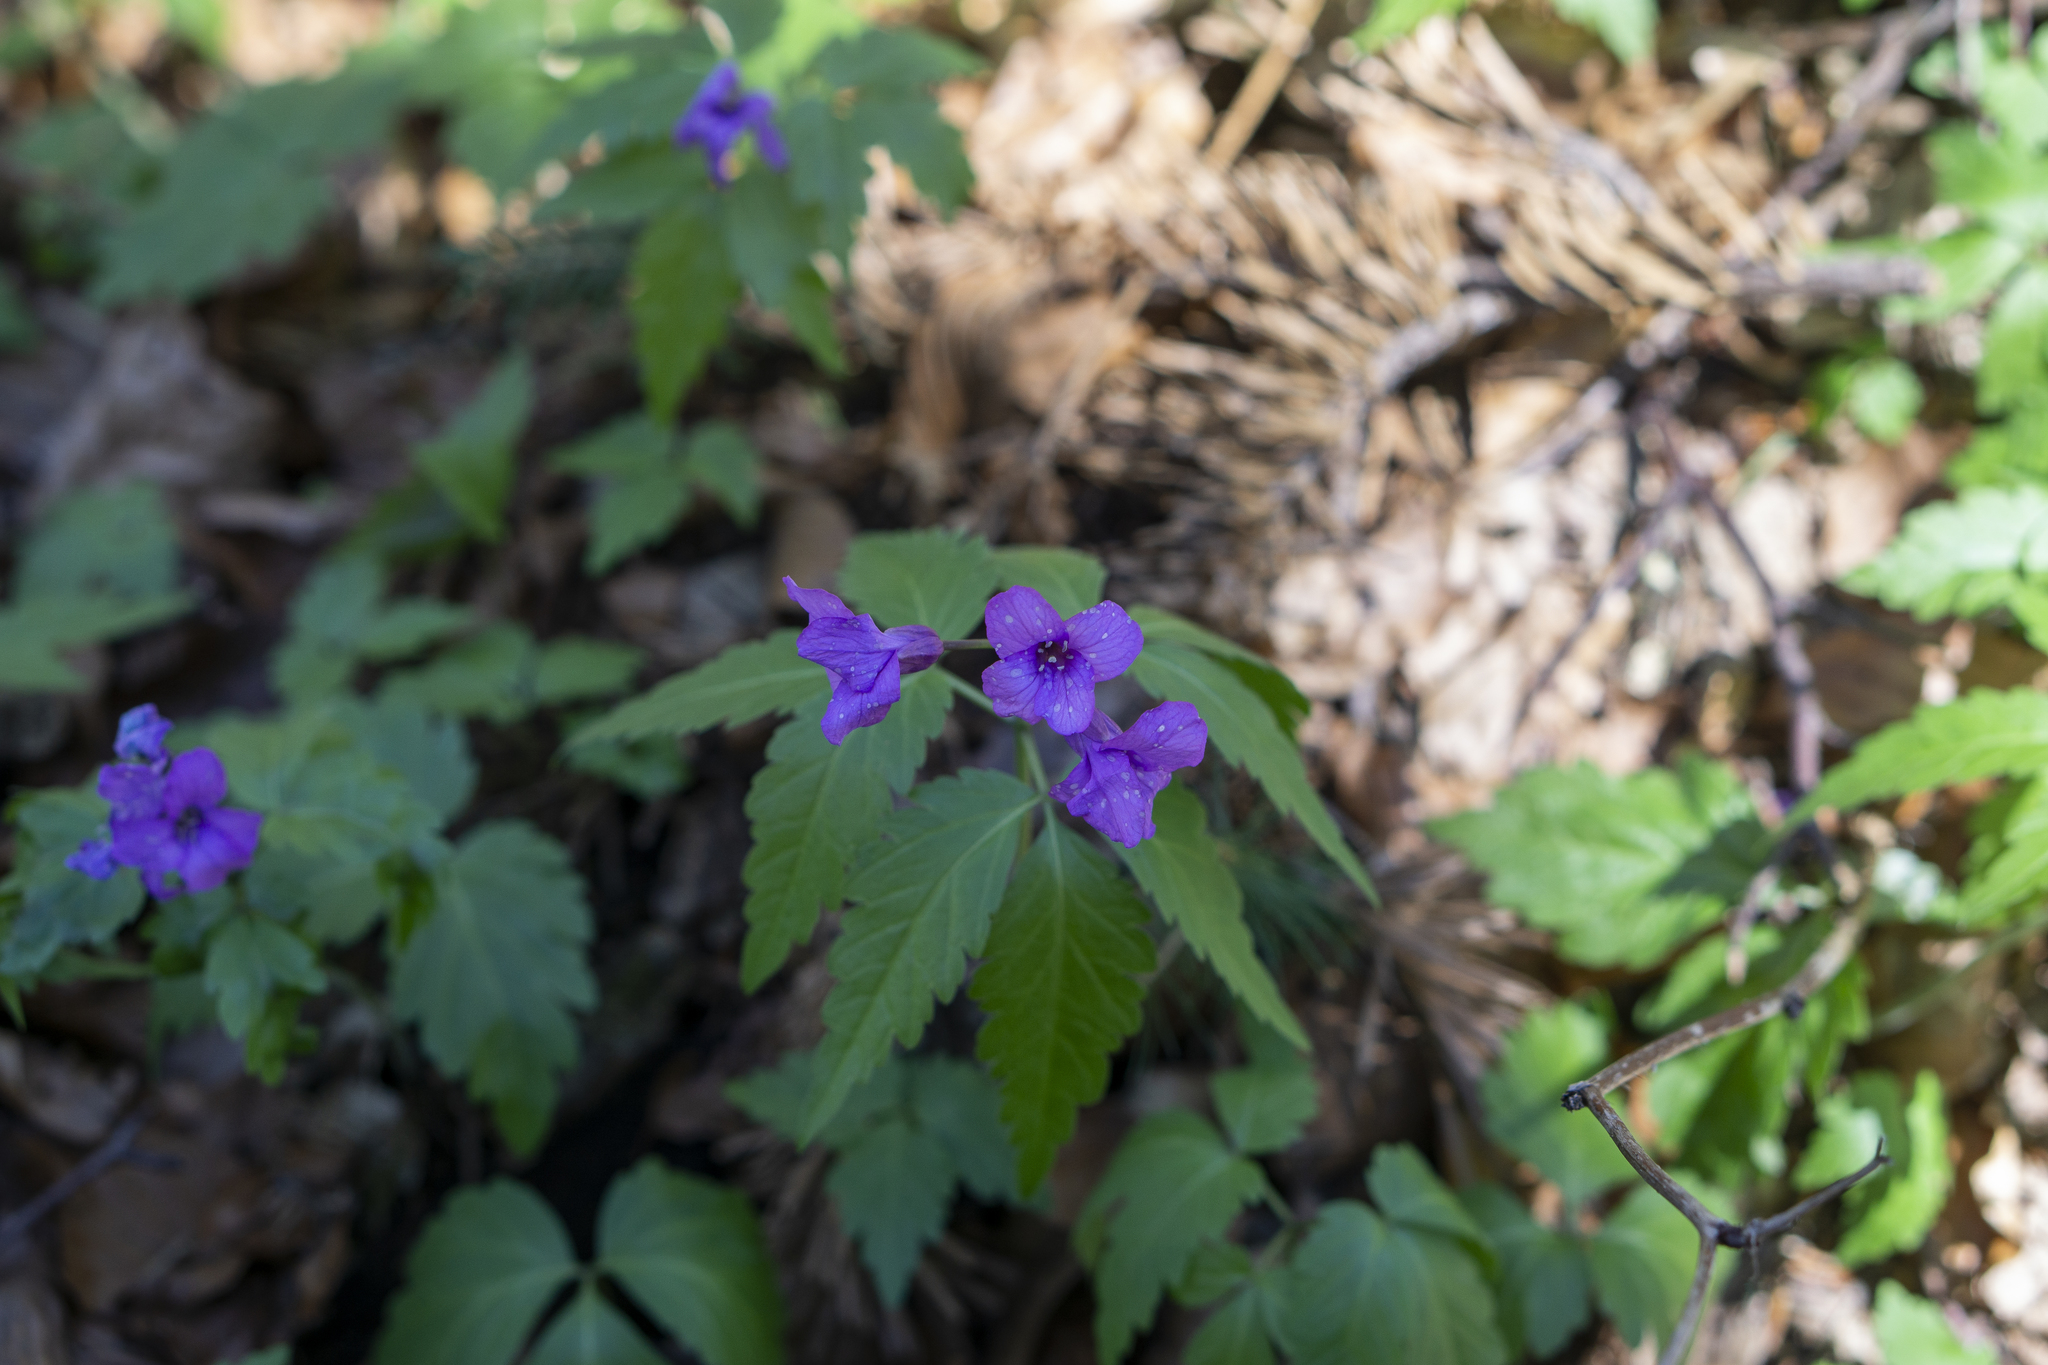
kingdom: Plantae
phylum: Tracheophyta
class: Magnoliopsida
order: Brassicales
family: Brassicaceae
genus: Cardamine
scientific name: Cardamine glanduligera
